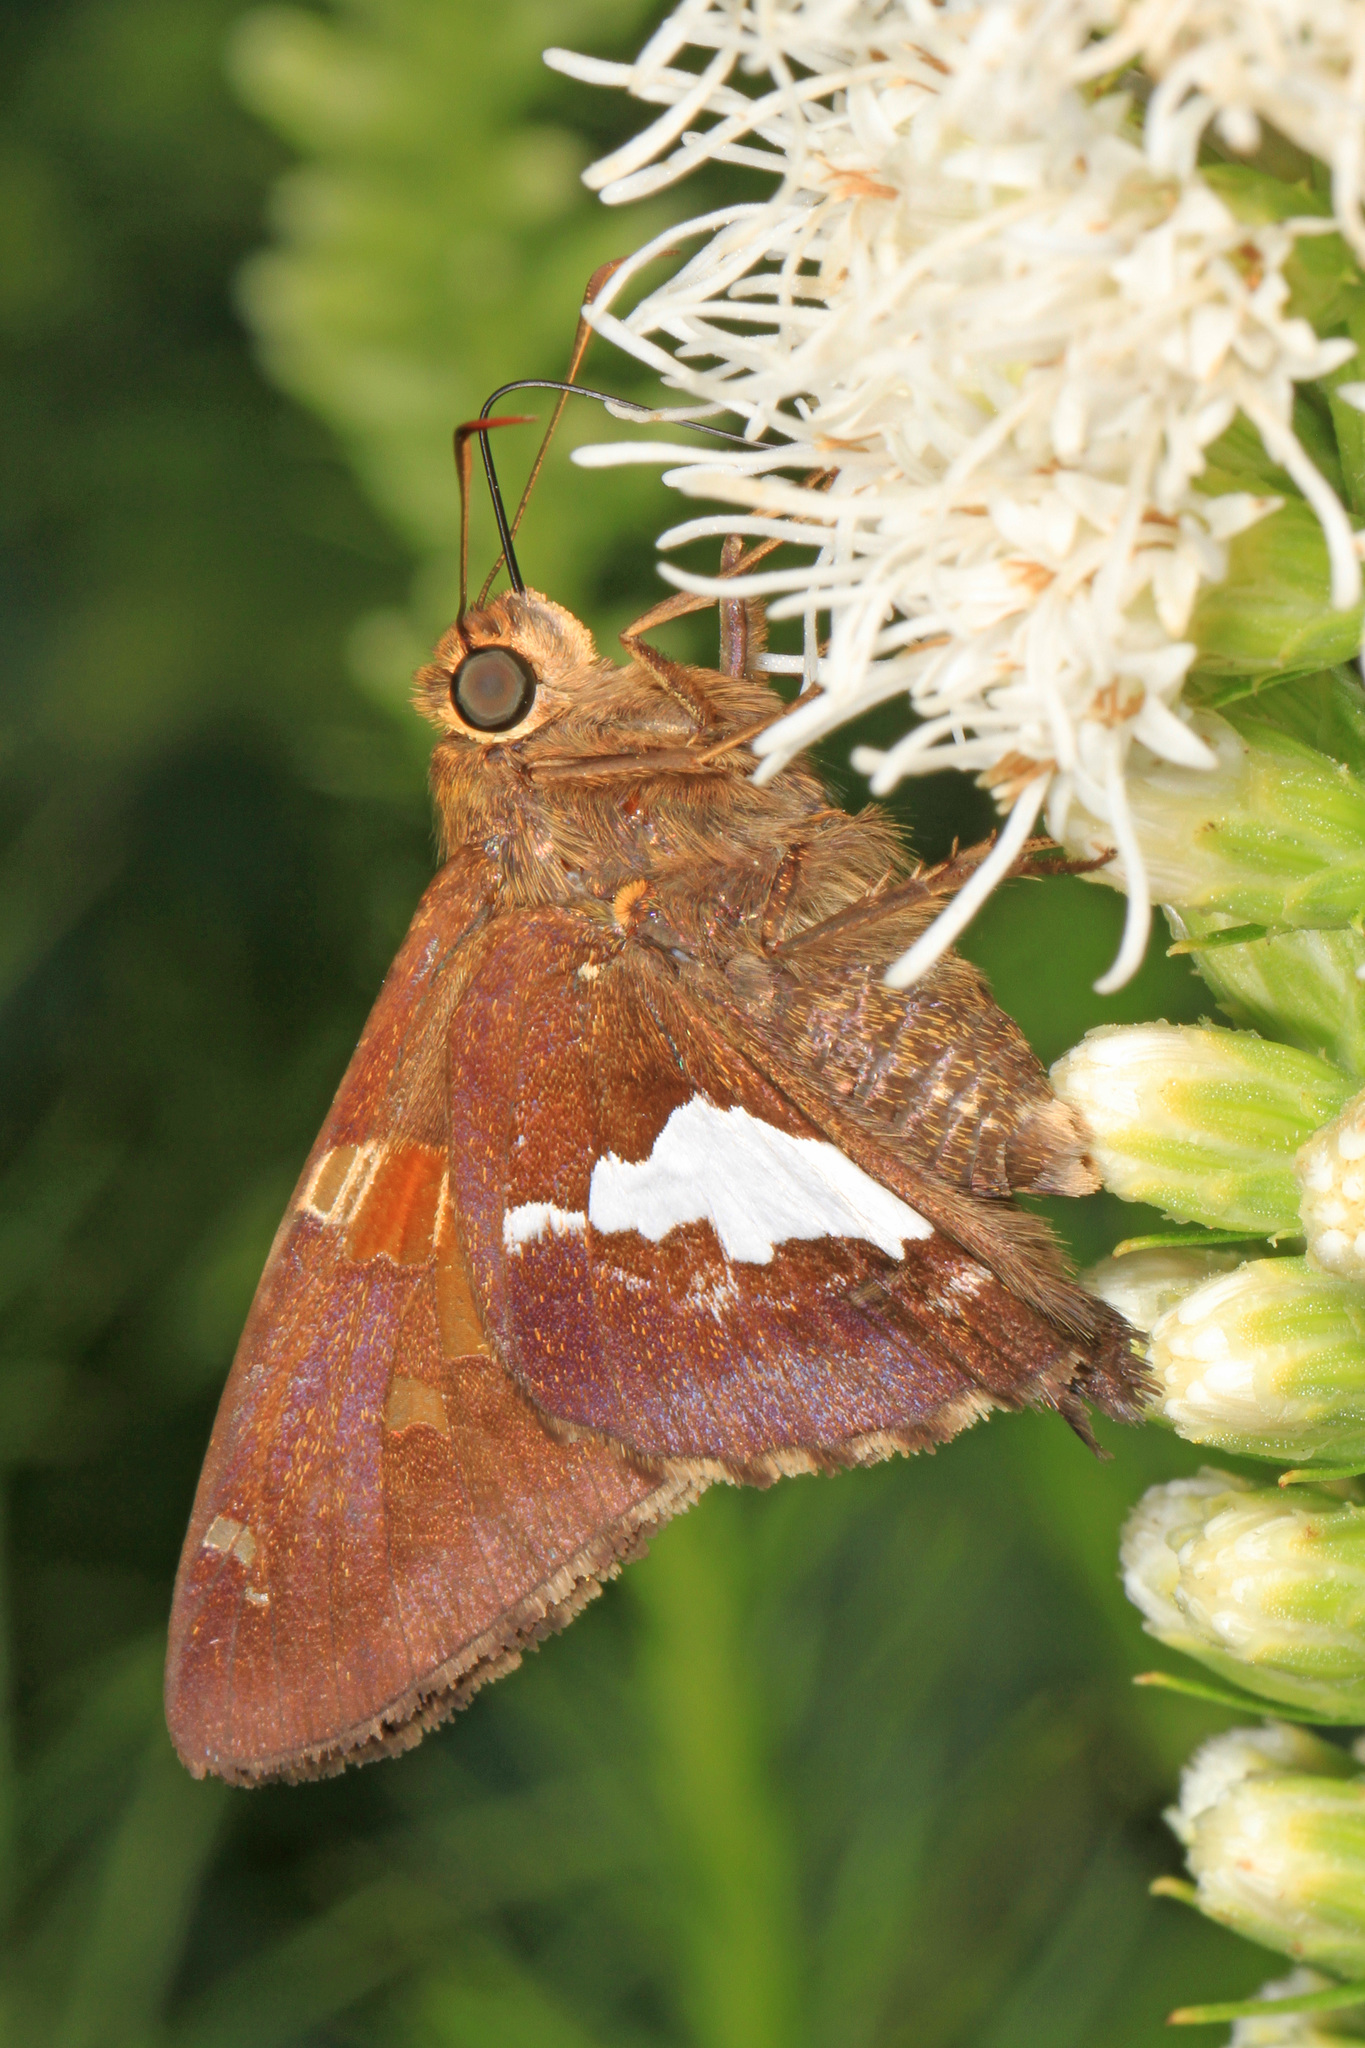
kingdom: Animalia
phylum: Arthropoda
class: Insecta
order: Lepidoptera
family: Hesperiidae
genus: Epargyreus
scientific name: Epargyreus clarus
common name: Silver-spotted skipper
